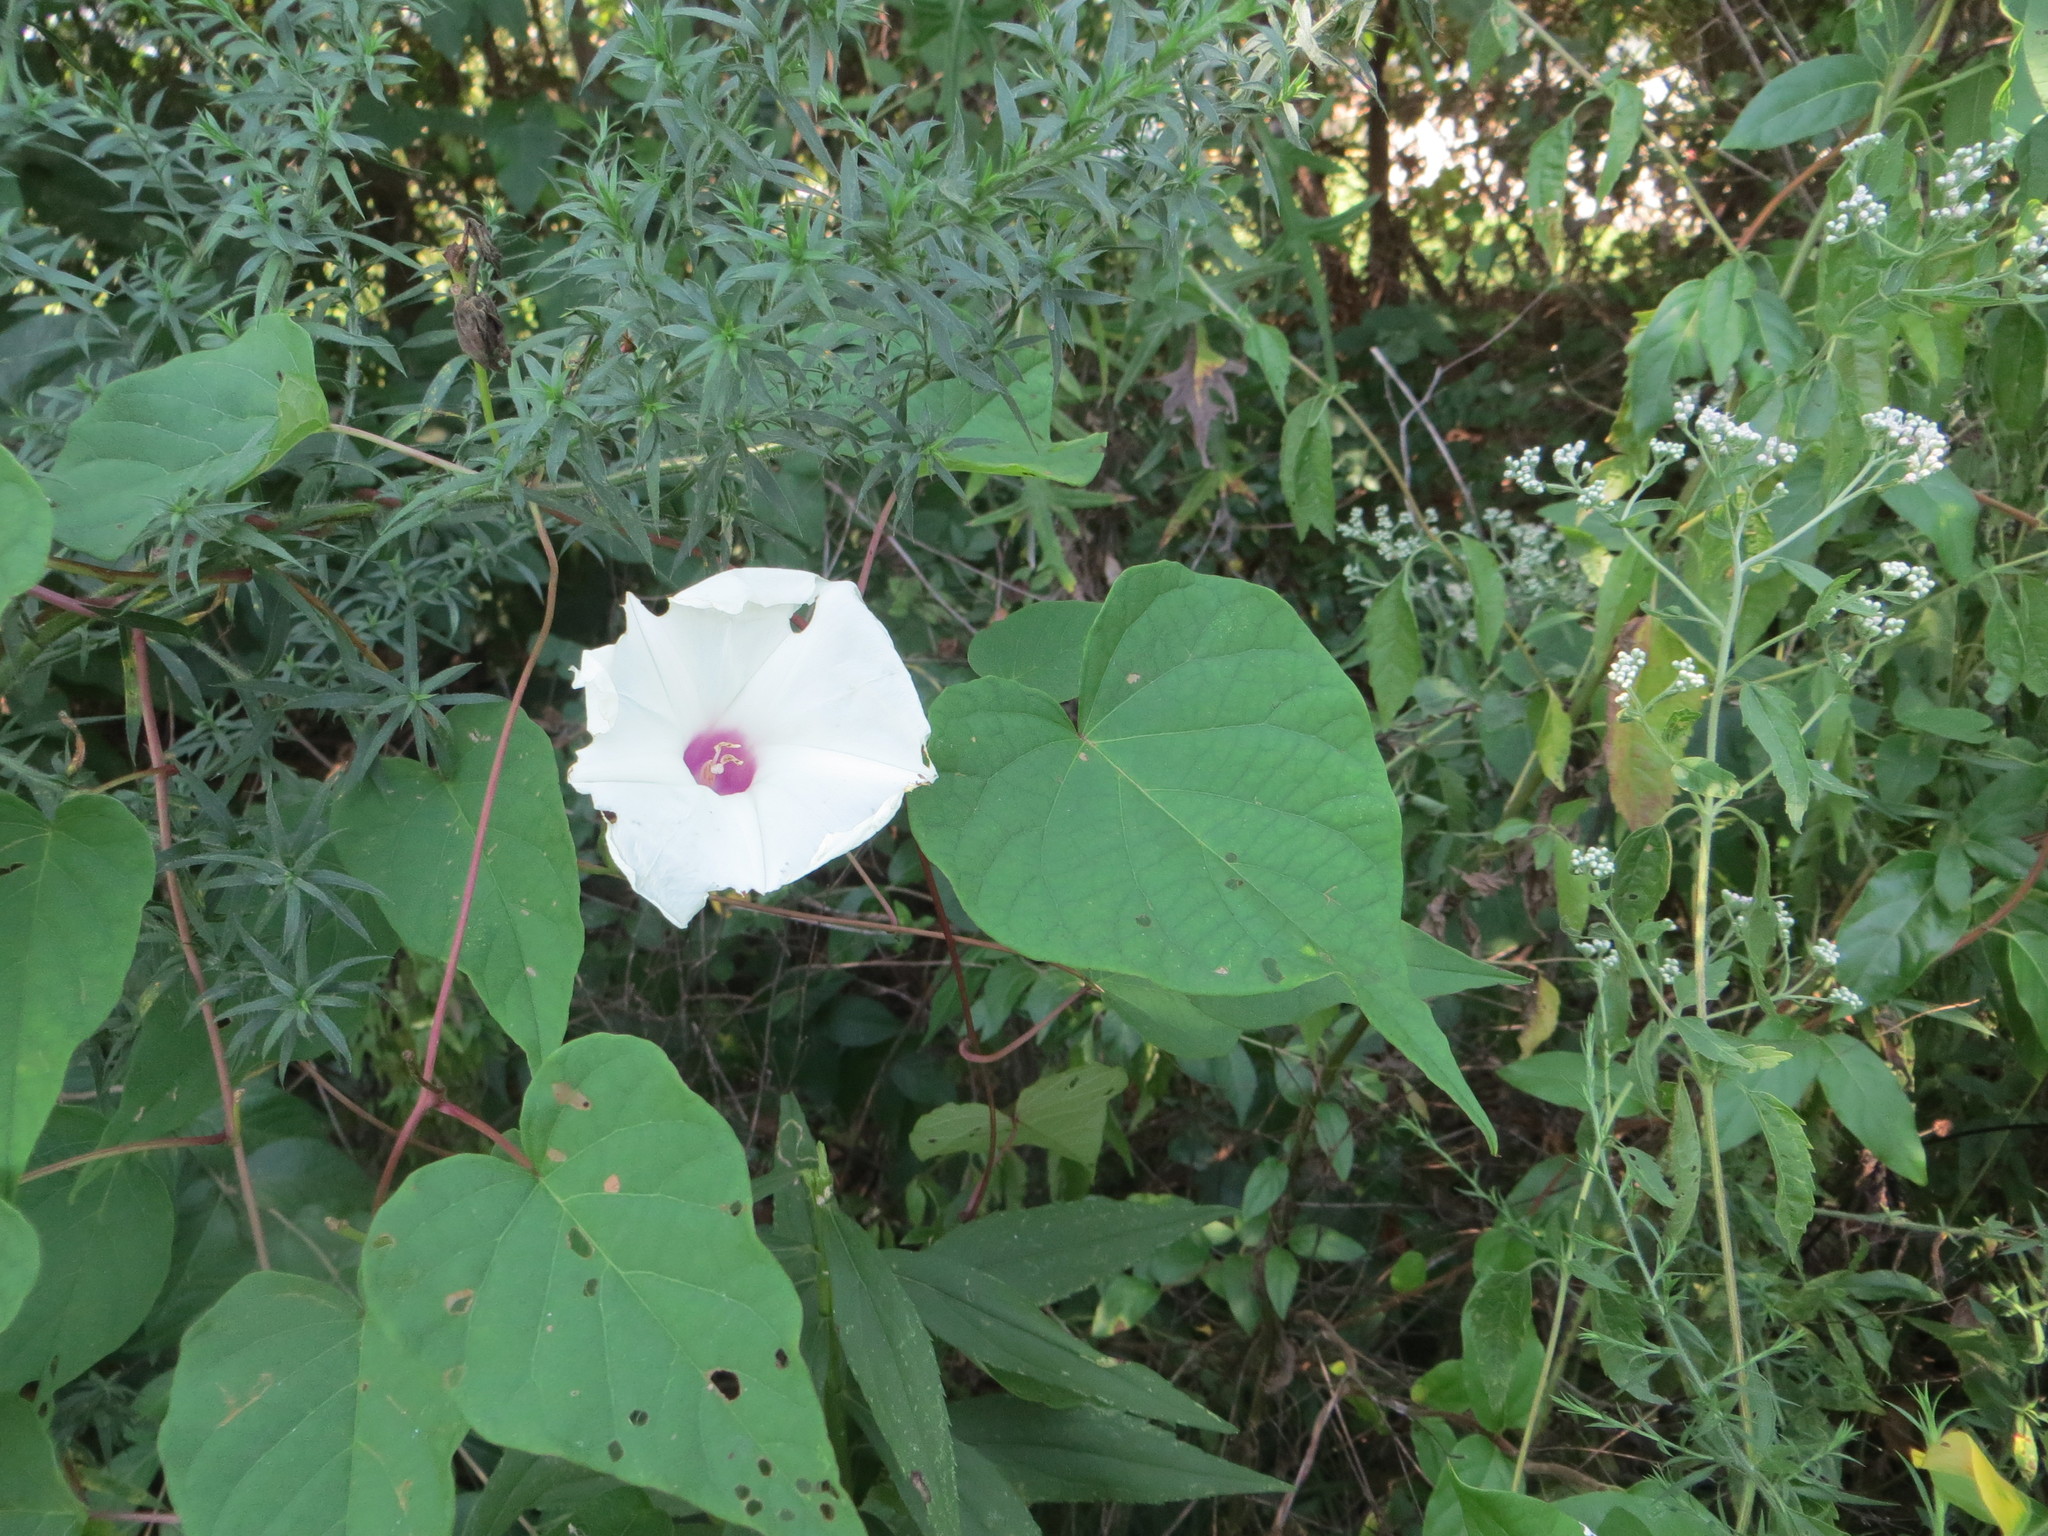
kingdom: Plantae
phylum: Tracheophyta
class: Magnoliopsida
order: Solanales
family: Convolvulaceae
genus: Ipomoea
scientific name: Ipomoea pandurata
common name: Man-of-the-earth
